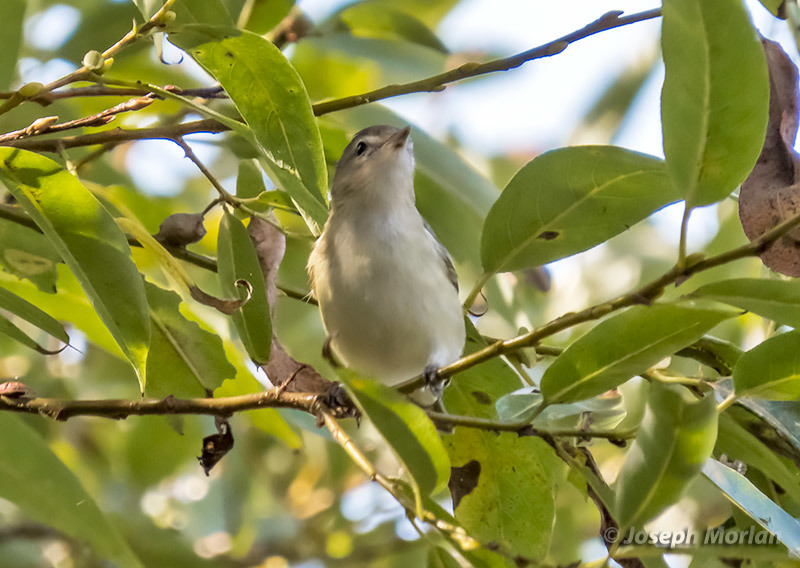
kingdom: Animalia
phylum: Chordata
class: Aves
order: Passeriformes
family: Vireonidae
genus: Vireo
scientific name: Vireo gilvus
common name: Warbling vireo
